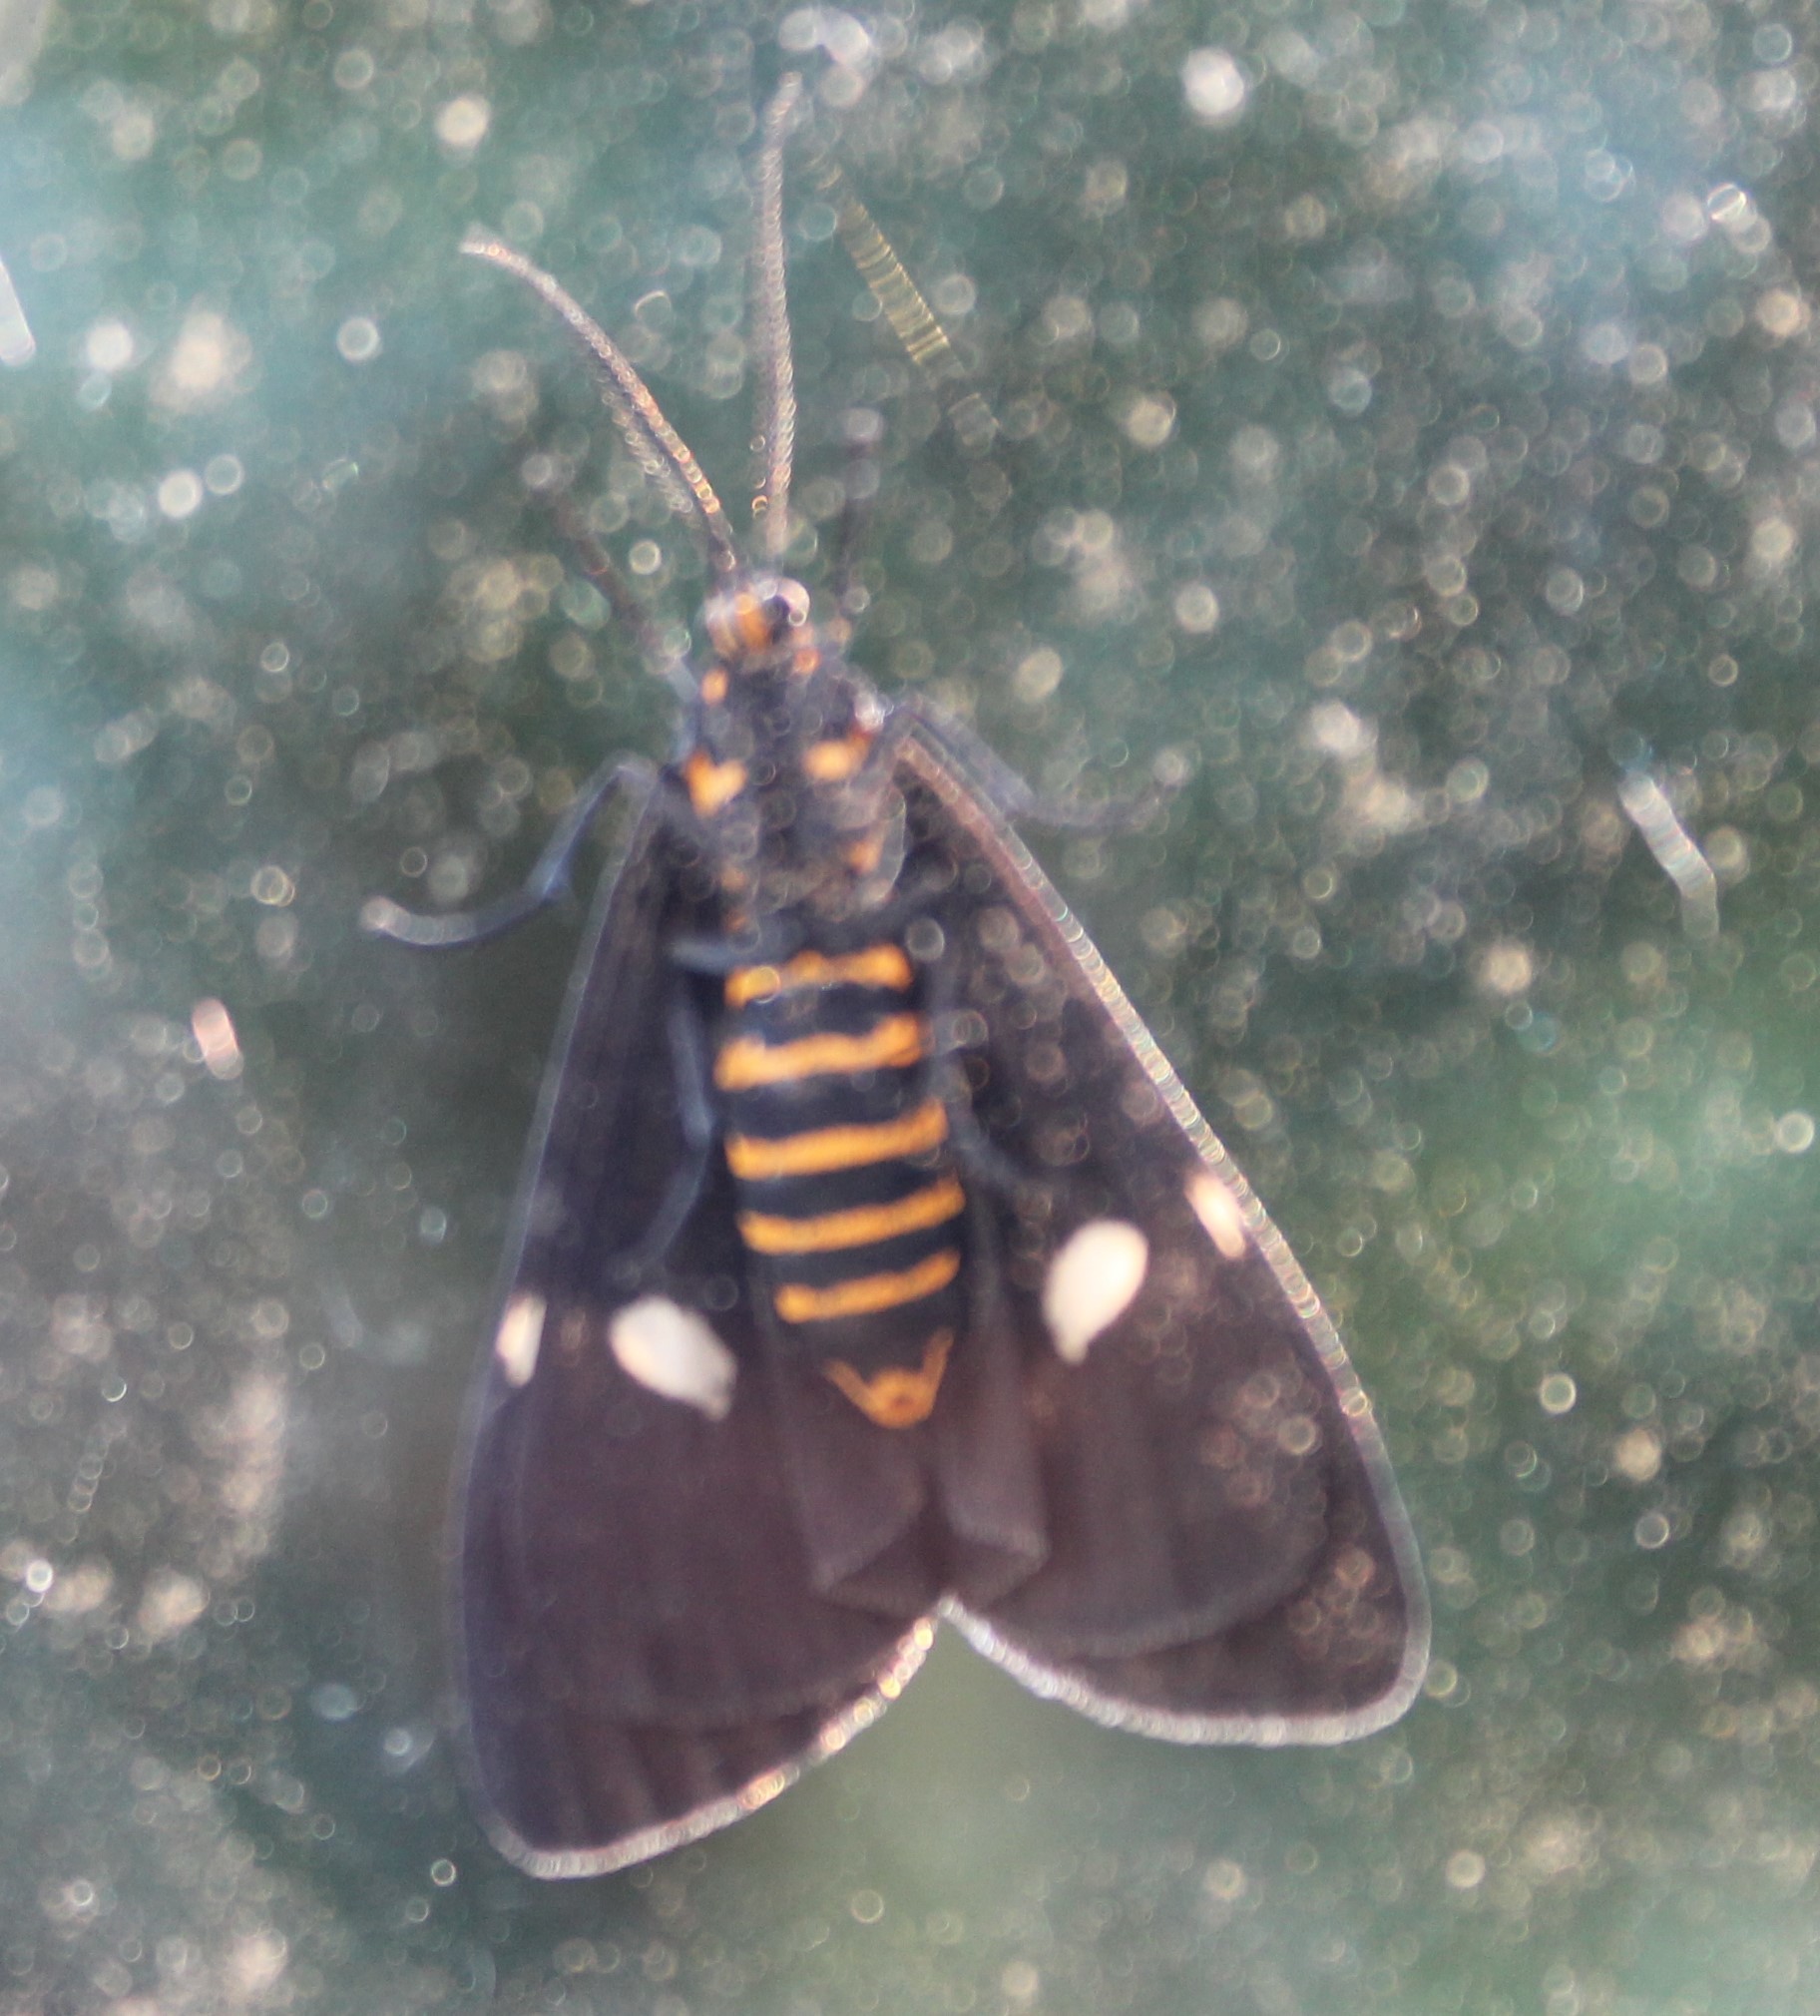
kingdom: Animalia
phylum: Arthropoda
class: Insecta
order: Lepidoptera
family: Erebidae
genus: Nyctemera
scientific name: Nyctemera annulatum
